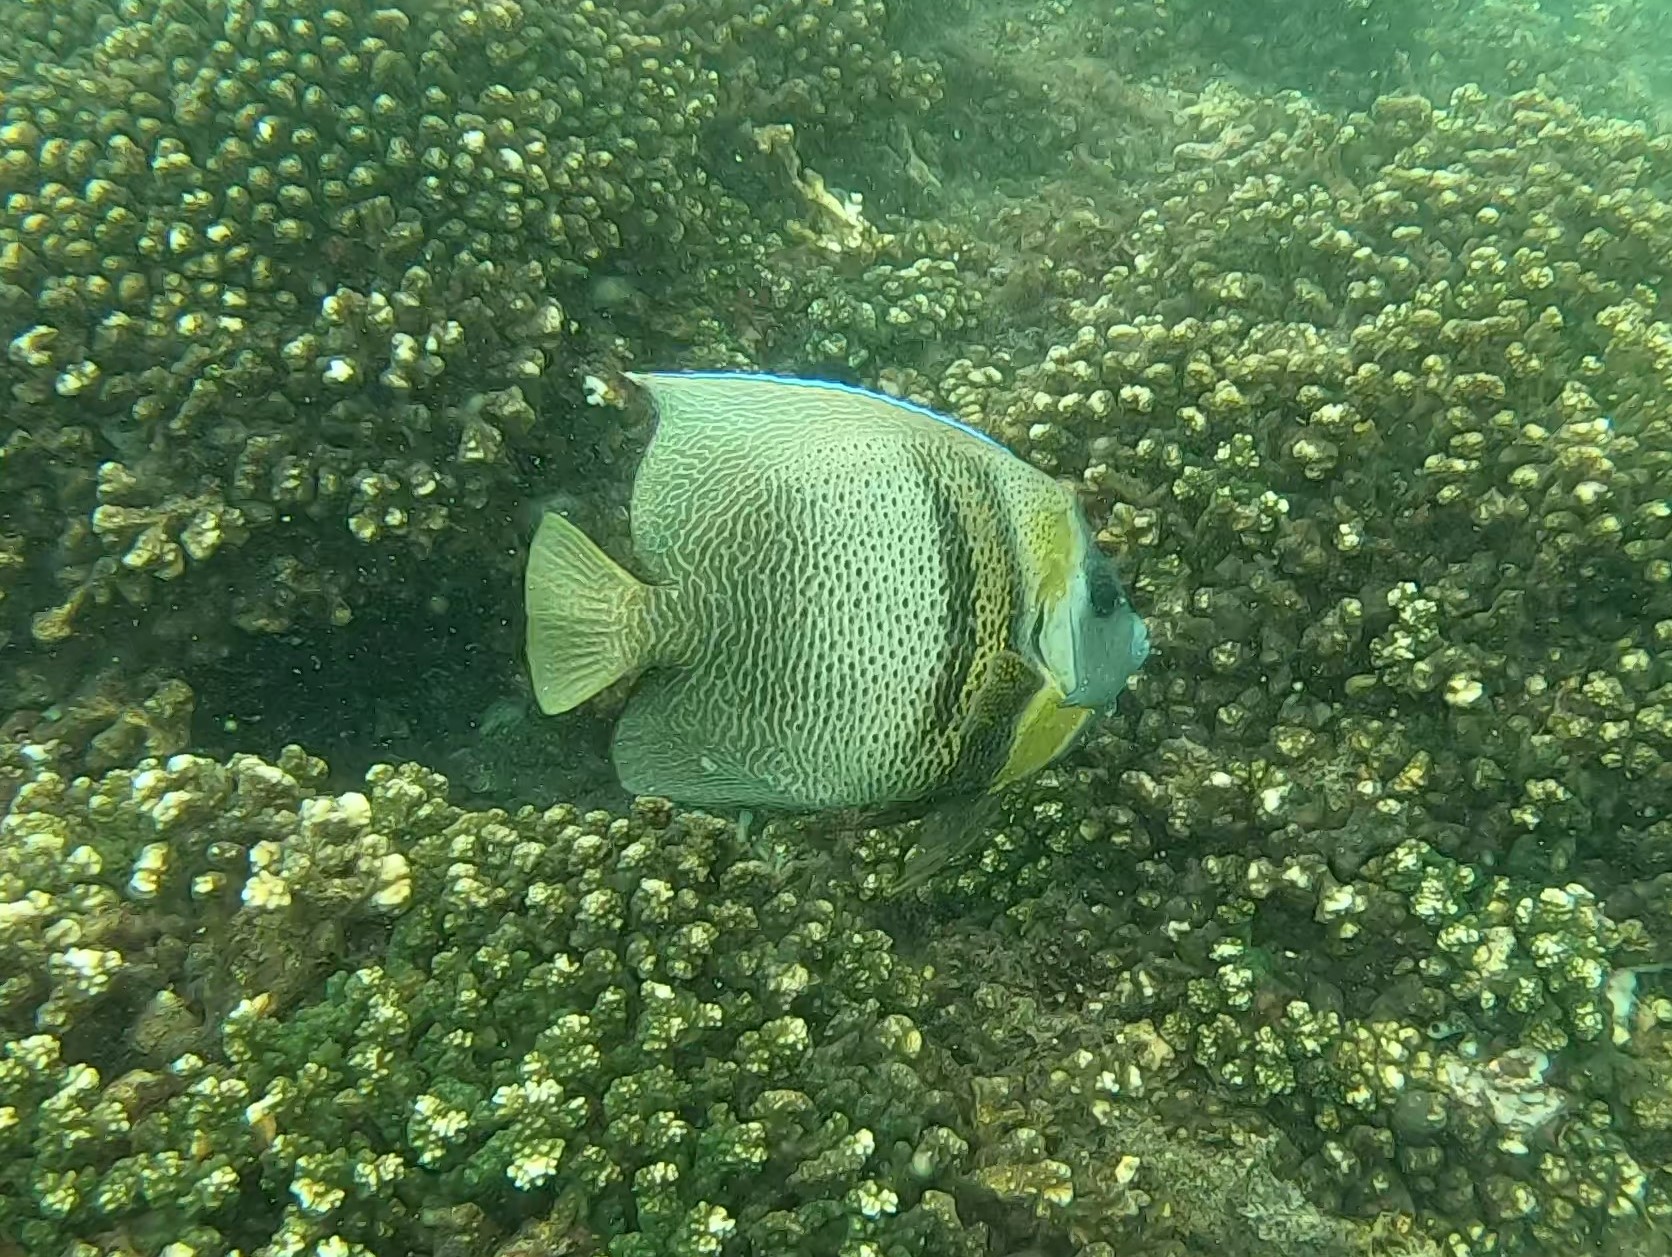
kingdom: Animalia
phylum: Chordata
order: Perciformes
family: Pomacanthidae
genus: Pomacanthus
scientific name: Pomacanthus zonipectus
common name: Cortez angelfish
